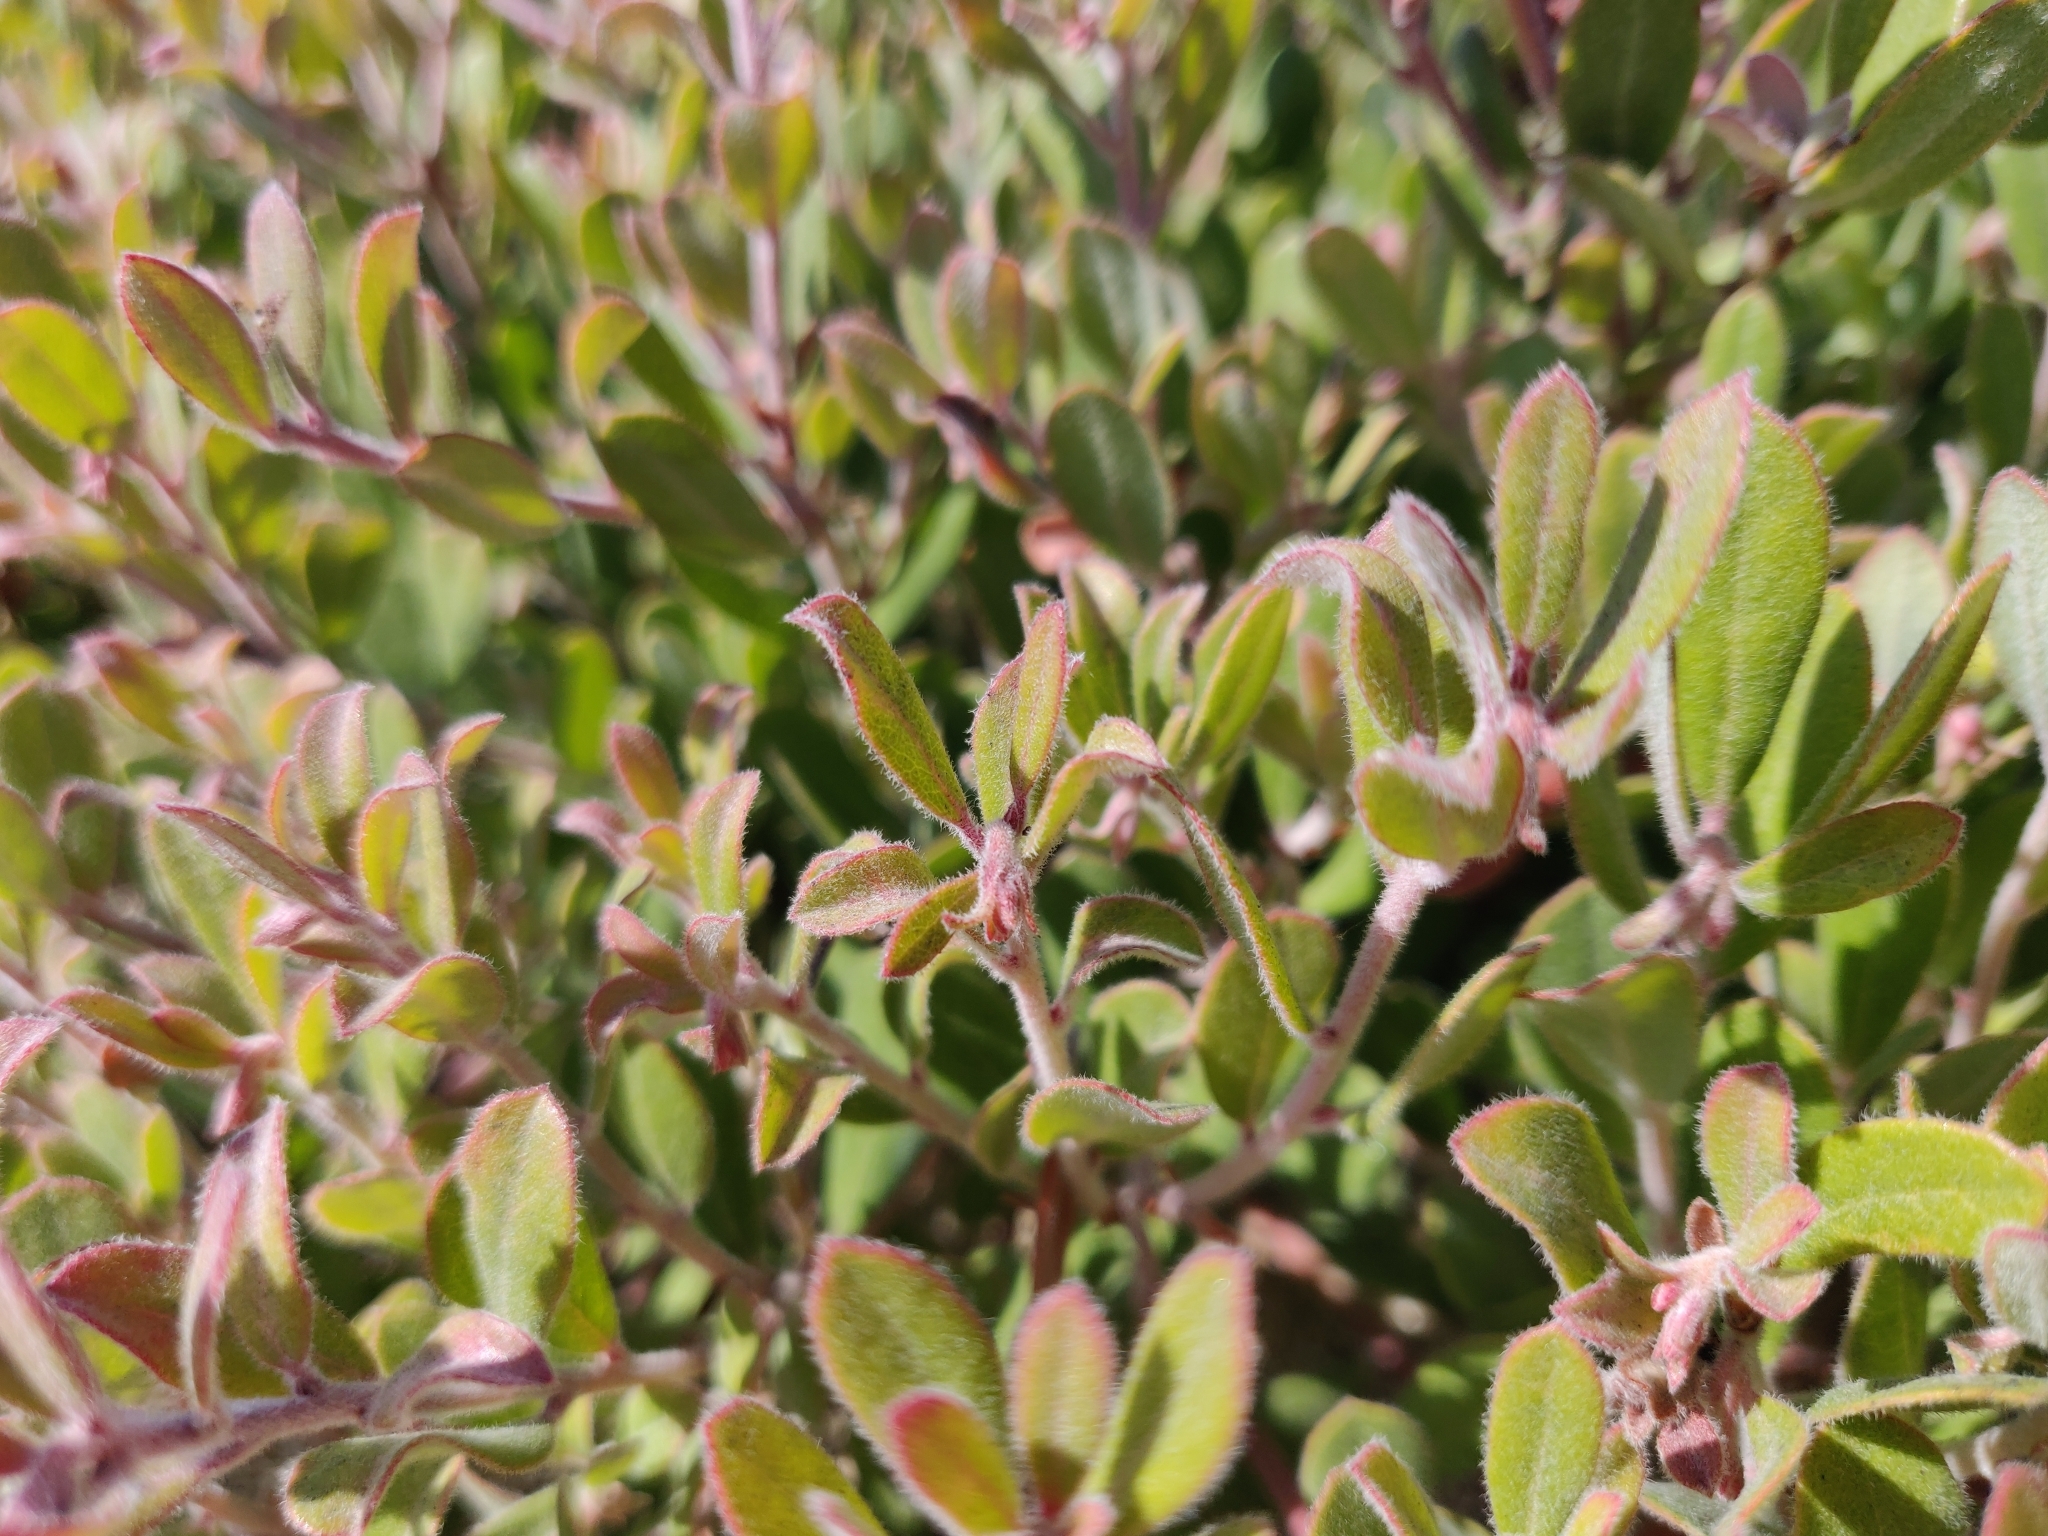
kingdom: Plantae
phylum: Tracheophyta
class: Magnoliopsida
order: Ericales
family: Ericaceae
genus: Arctostaphylos
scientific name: Arctostaphylos pumila
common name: Sandmat manzanita
